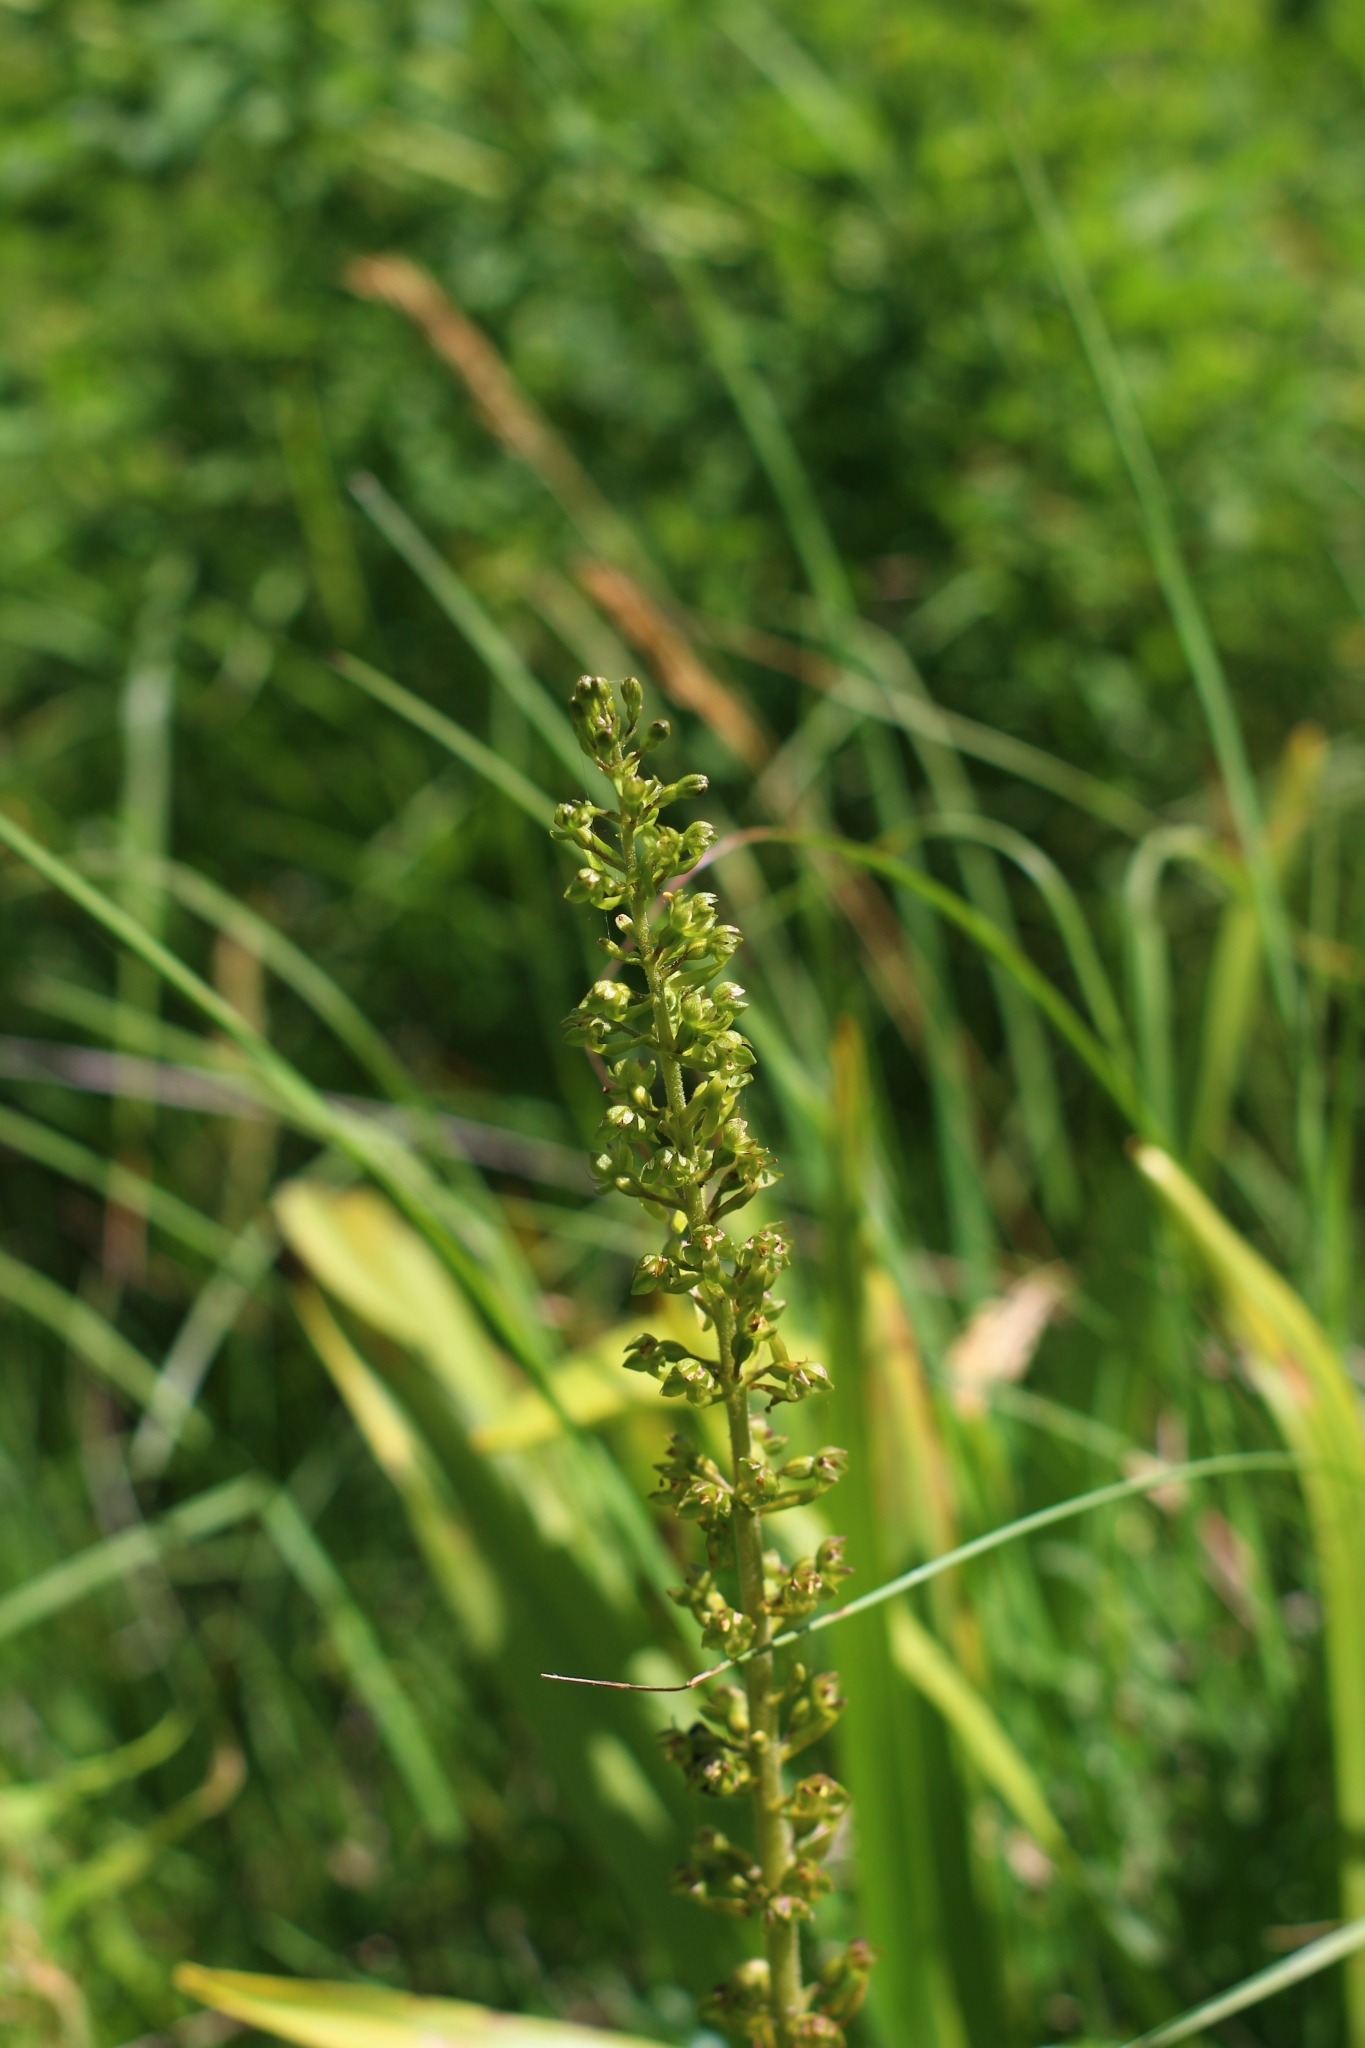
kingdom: Plantae
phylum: Tracheophyta
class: Liliopsida
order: Asparagales
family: Orchidaceae
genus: Neottia
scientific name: Neottia ovata
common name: Common twayblade
